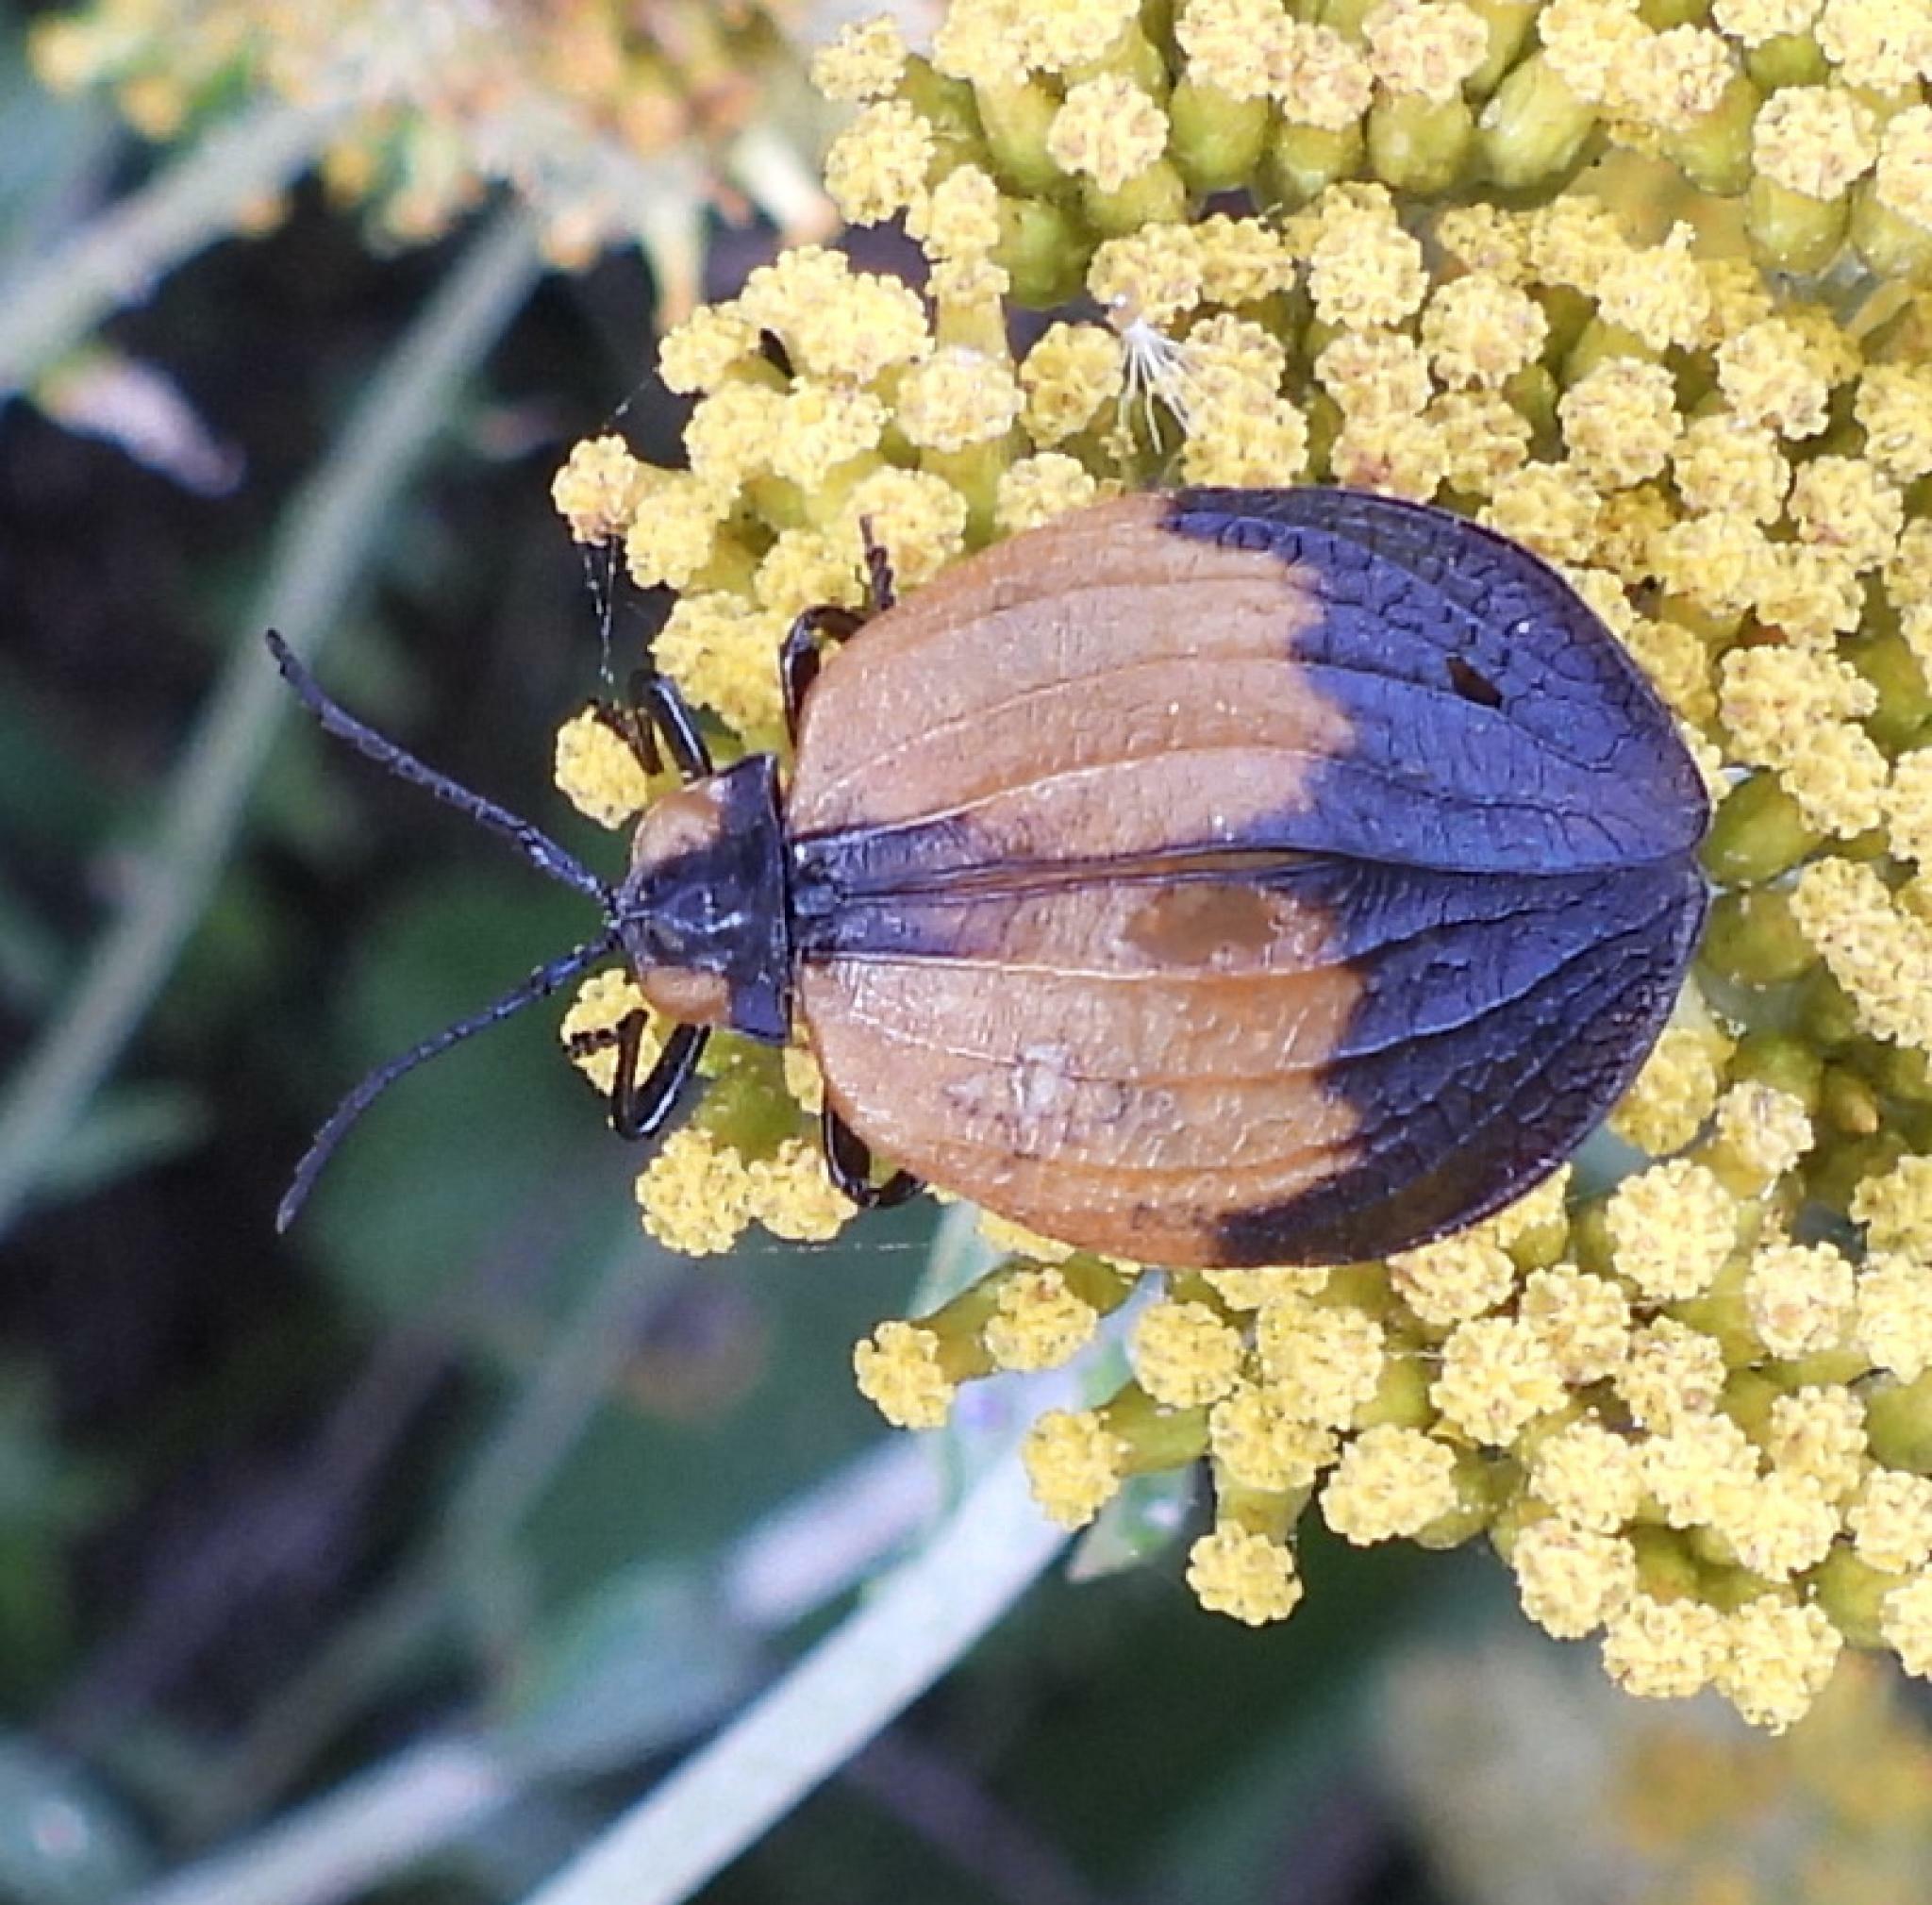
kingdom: Animalia
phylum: Arthropoda
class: Insecta
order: Coleoptera
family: Lycidae
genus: Lycus
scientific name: Lycus
